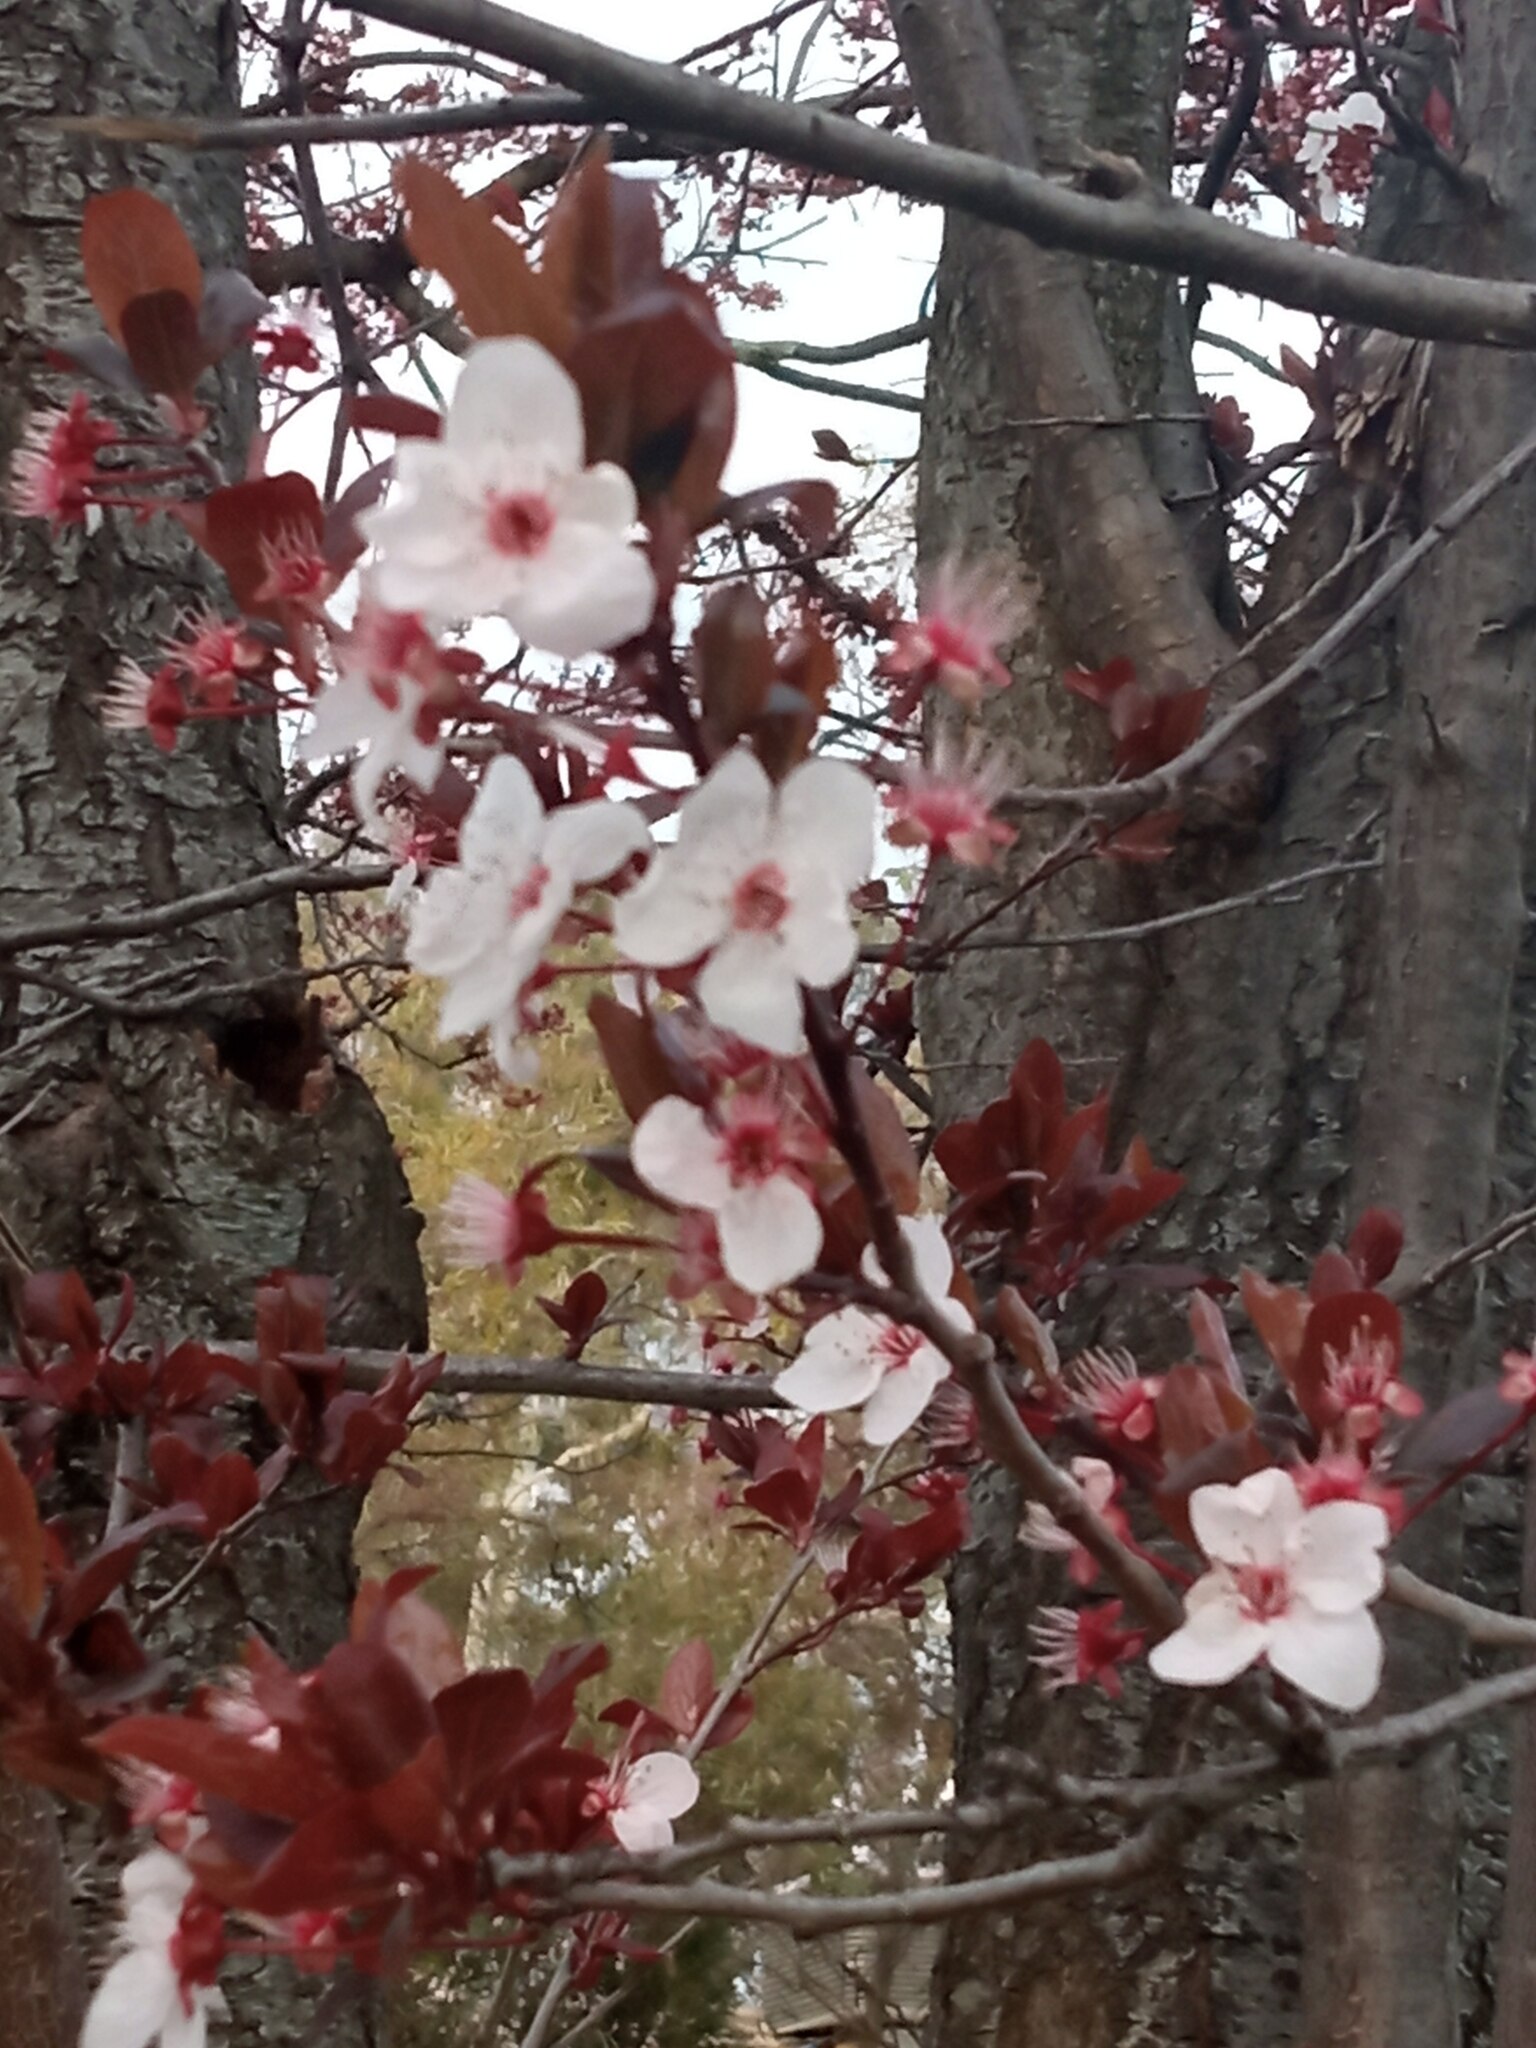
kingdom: Plantae
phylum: Tracheophyta
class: Magnoliopsida
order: Rosales
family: Rosaceae
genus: Prunus
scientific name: Prunus cerasifera
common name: Cherry plum
